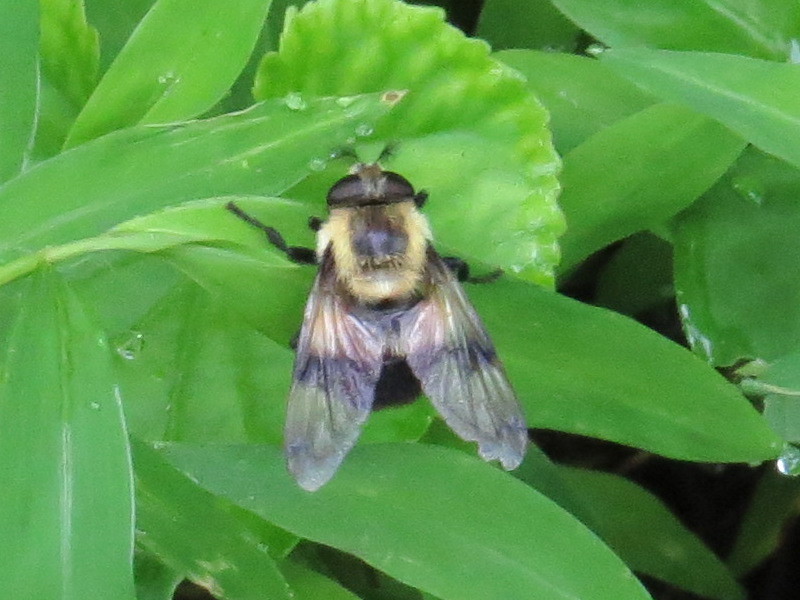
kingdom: Animalia
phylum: Arthropoda
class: Insecta
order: Diptera
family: Syrphidae
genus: Volucella
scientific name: Volucella evecta
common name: Eastern swiftwing
